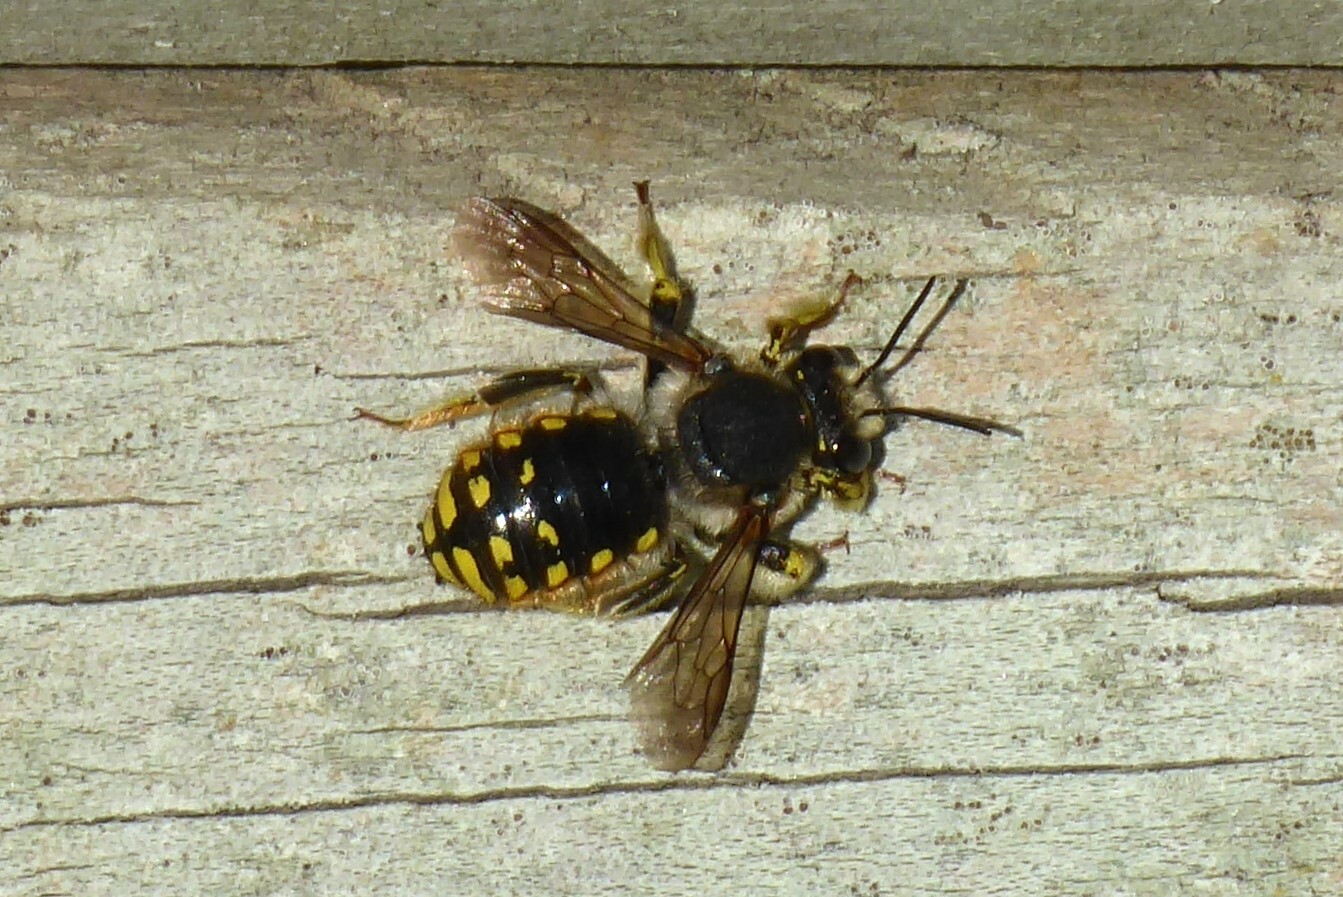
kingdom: Animalia
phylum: Arthropoda
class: Insecta
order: Hymenoptera
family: Megachilidae
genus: Anthidium
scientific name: Anthidium manicatum
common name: Wool carder bee
